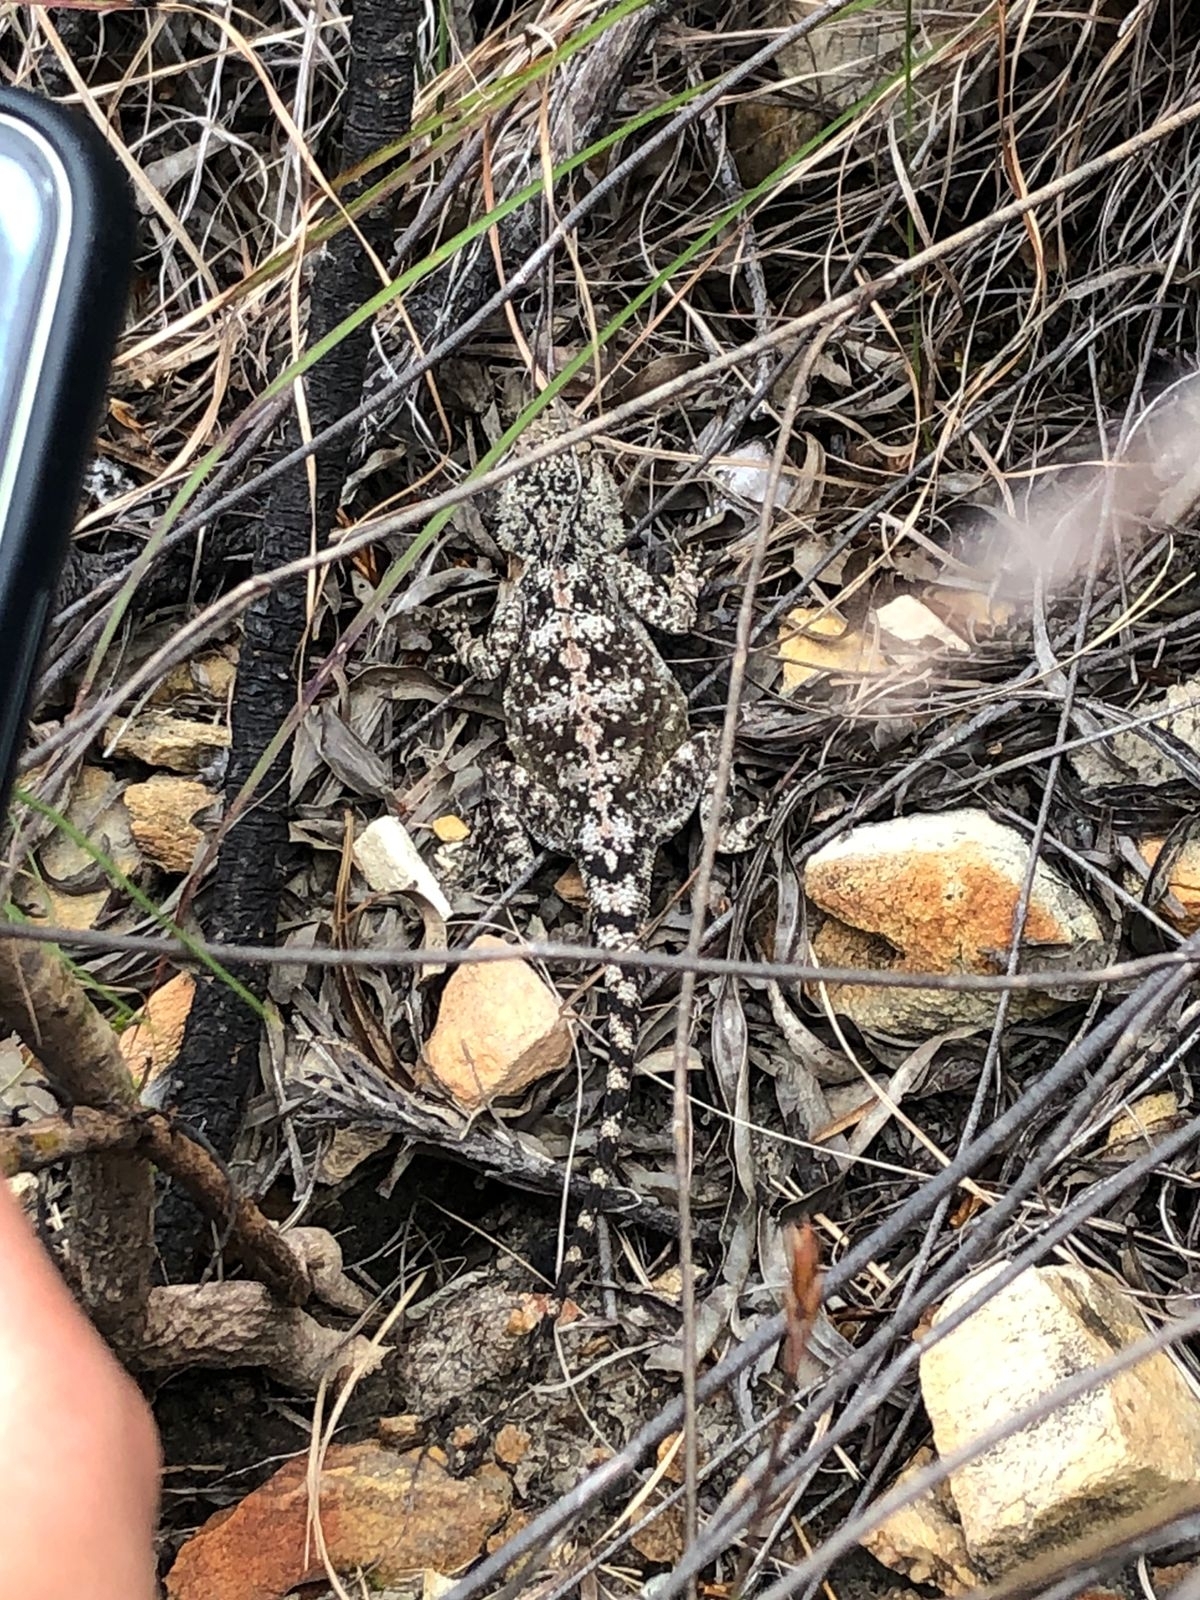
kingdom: Animalia
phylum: Chordata
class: Squamata
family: Agamidae
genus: Agama
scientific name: Agama atra
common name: Southern african rock agama
